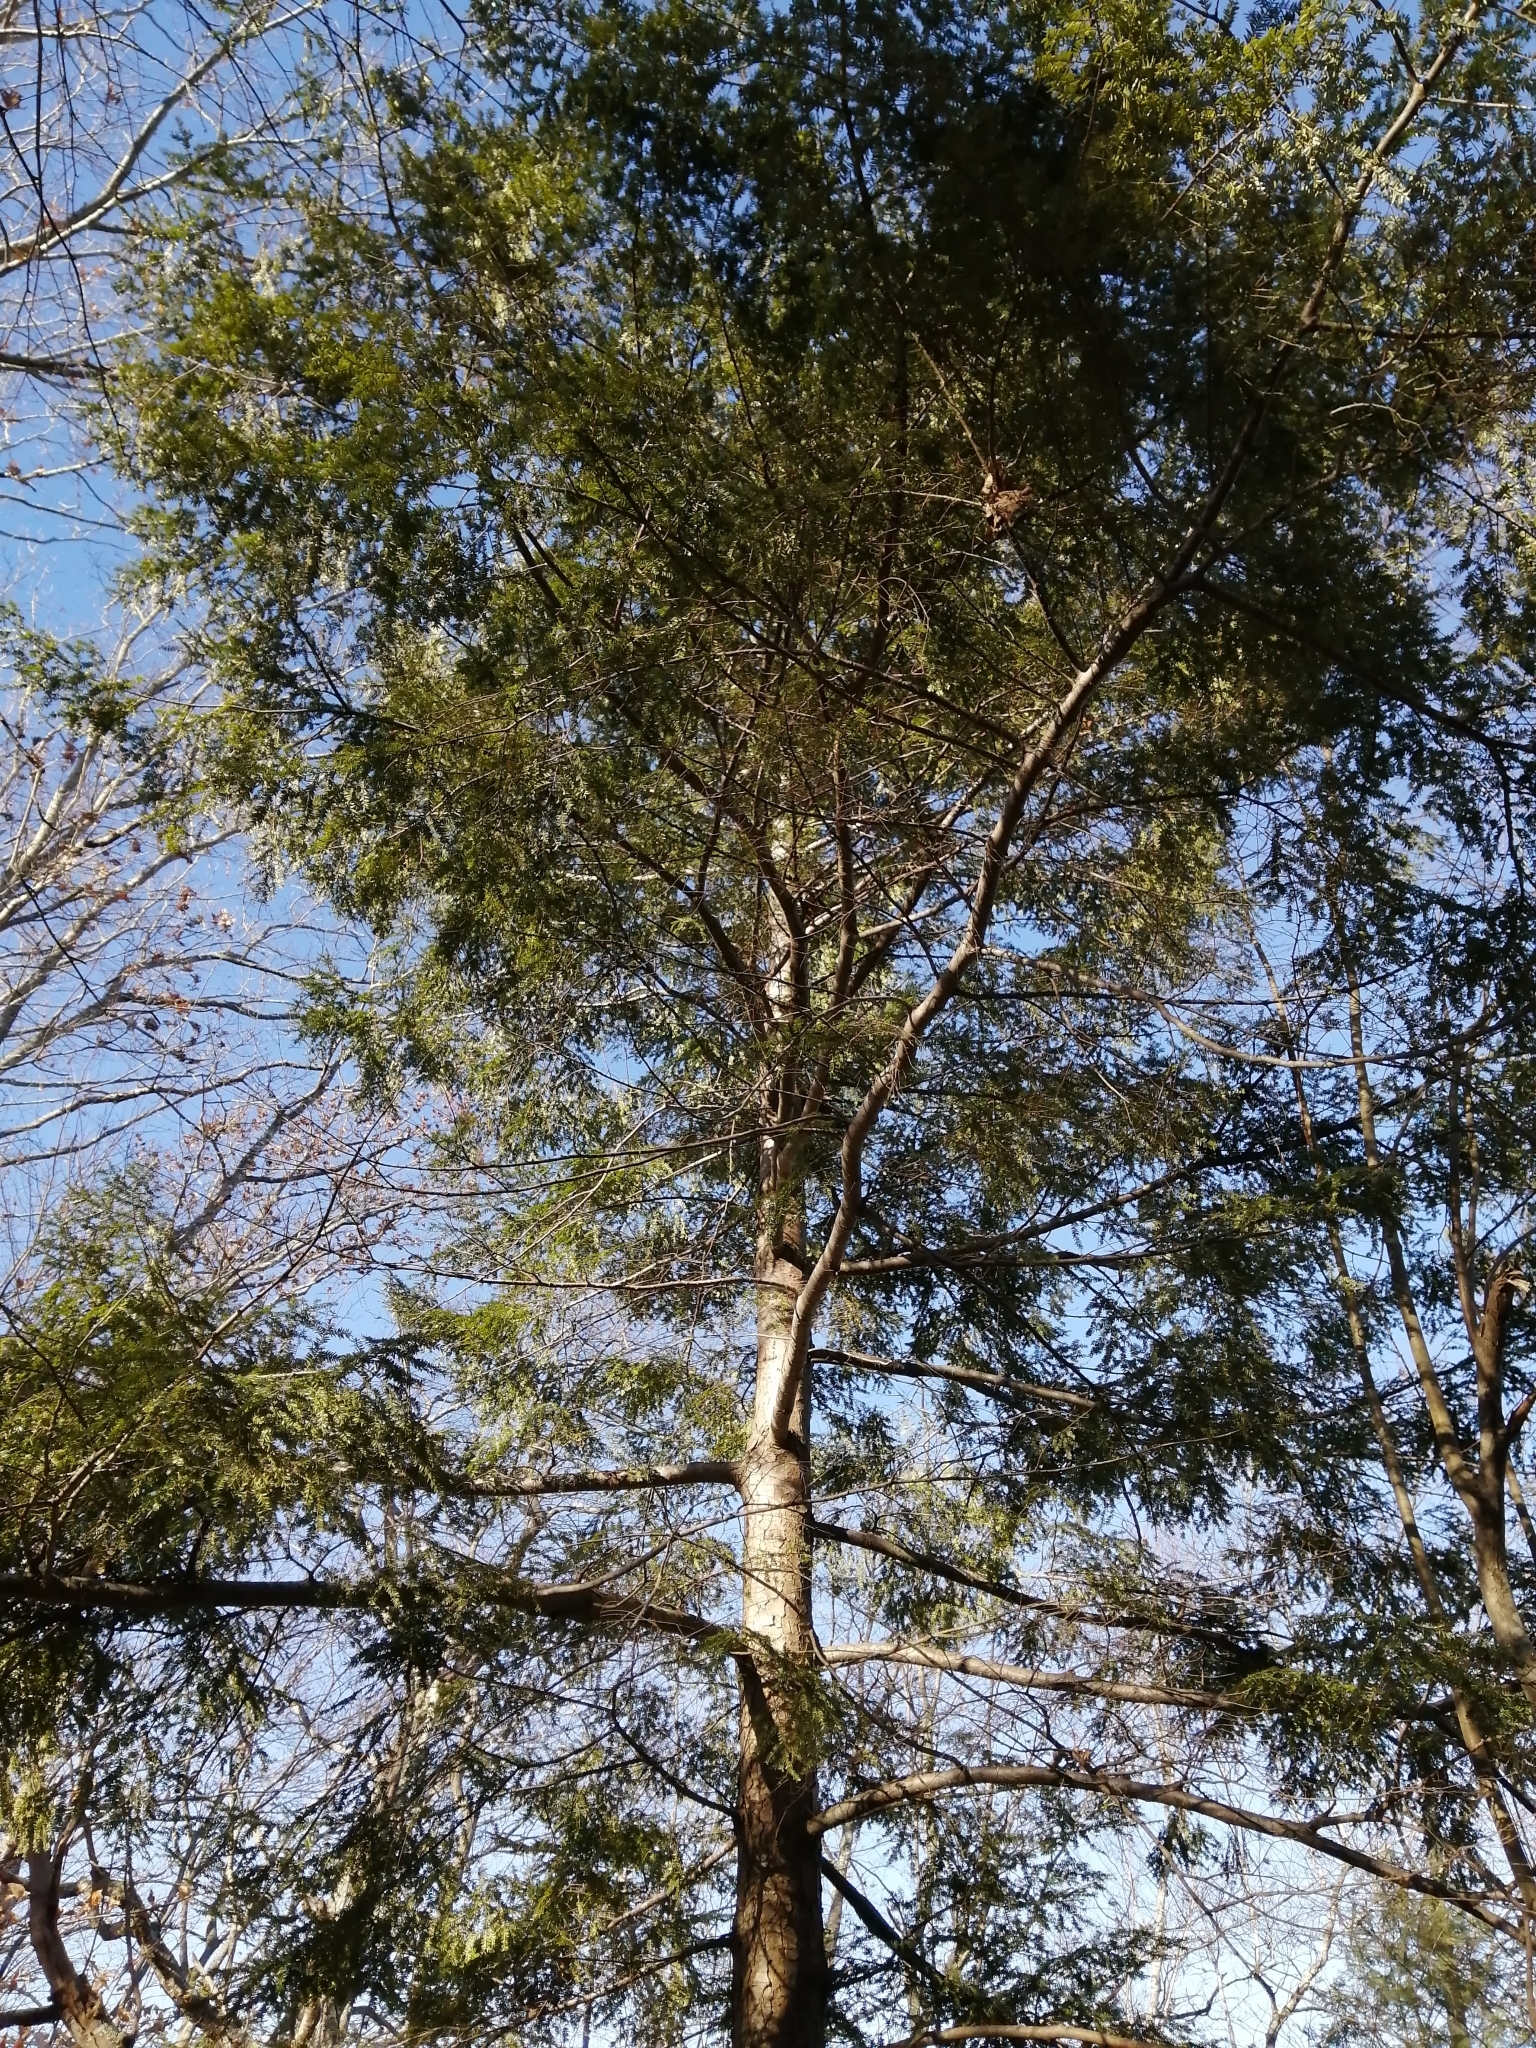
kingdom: Plantae
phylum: Tracheophyta
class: Pinopsida
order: Pinales
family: Pinaceae
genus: Tsuga
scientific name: Tsuga canadensis
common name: Eastern hemlock
